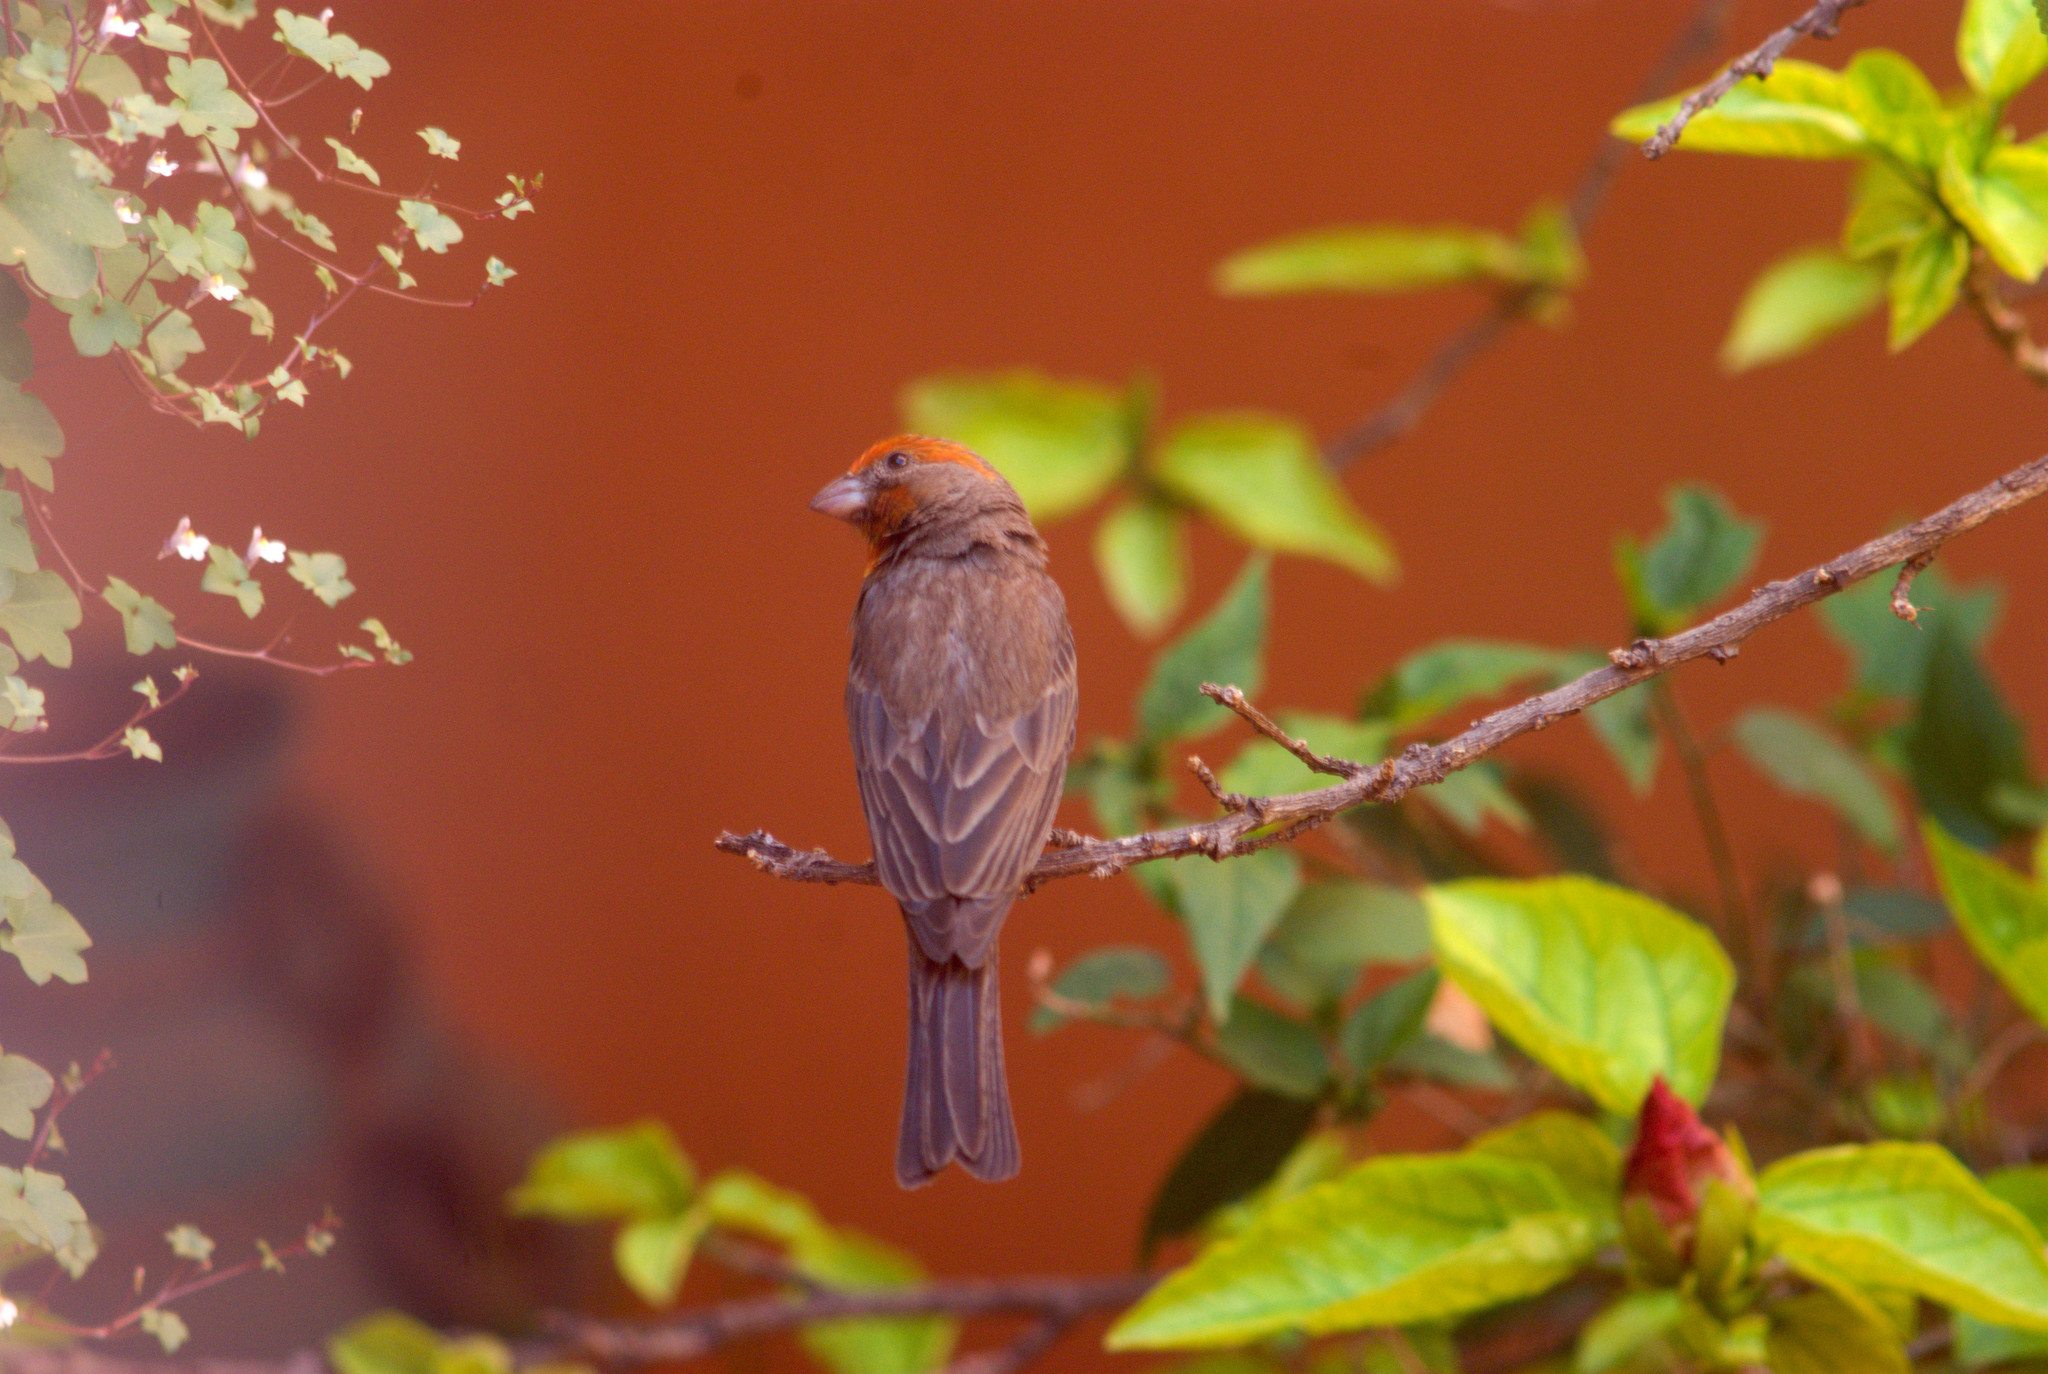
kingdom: Animalia
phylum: Chordata
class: Aves
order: Passeriformes
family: Fringillidae
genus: Haemorhous
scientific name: Haemorhous mexicanus
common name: House finch
